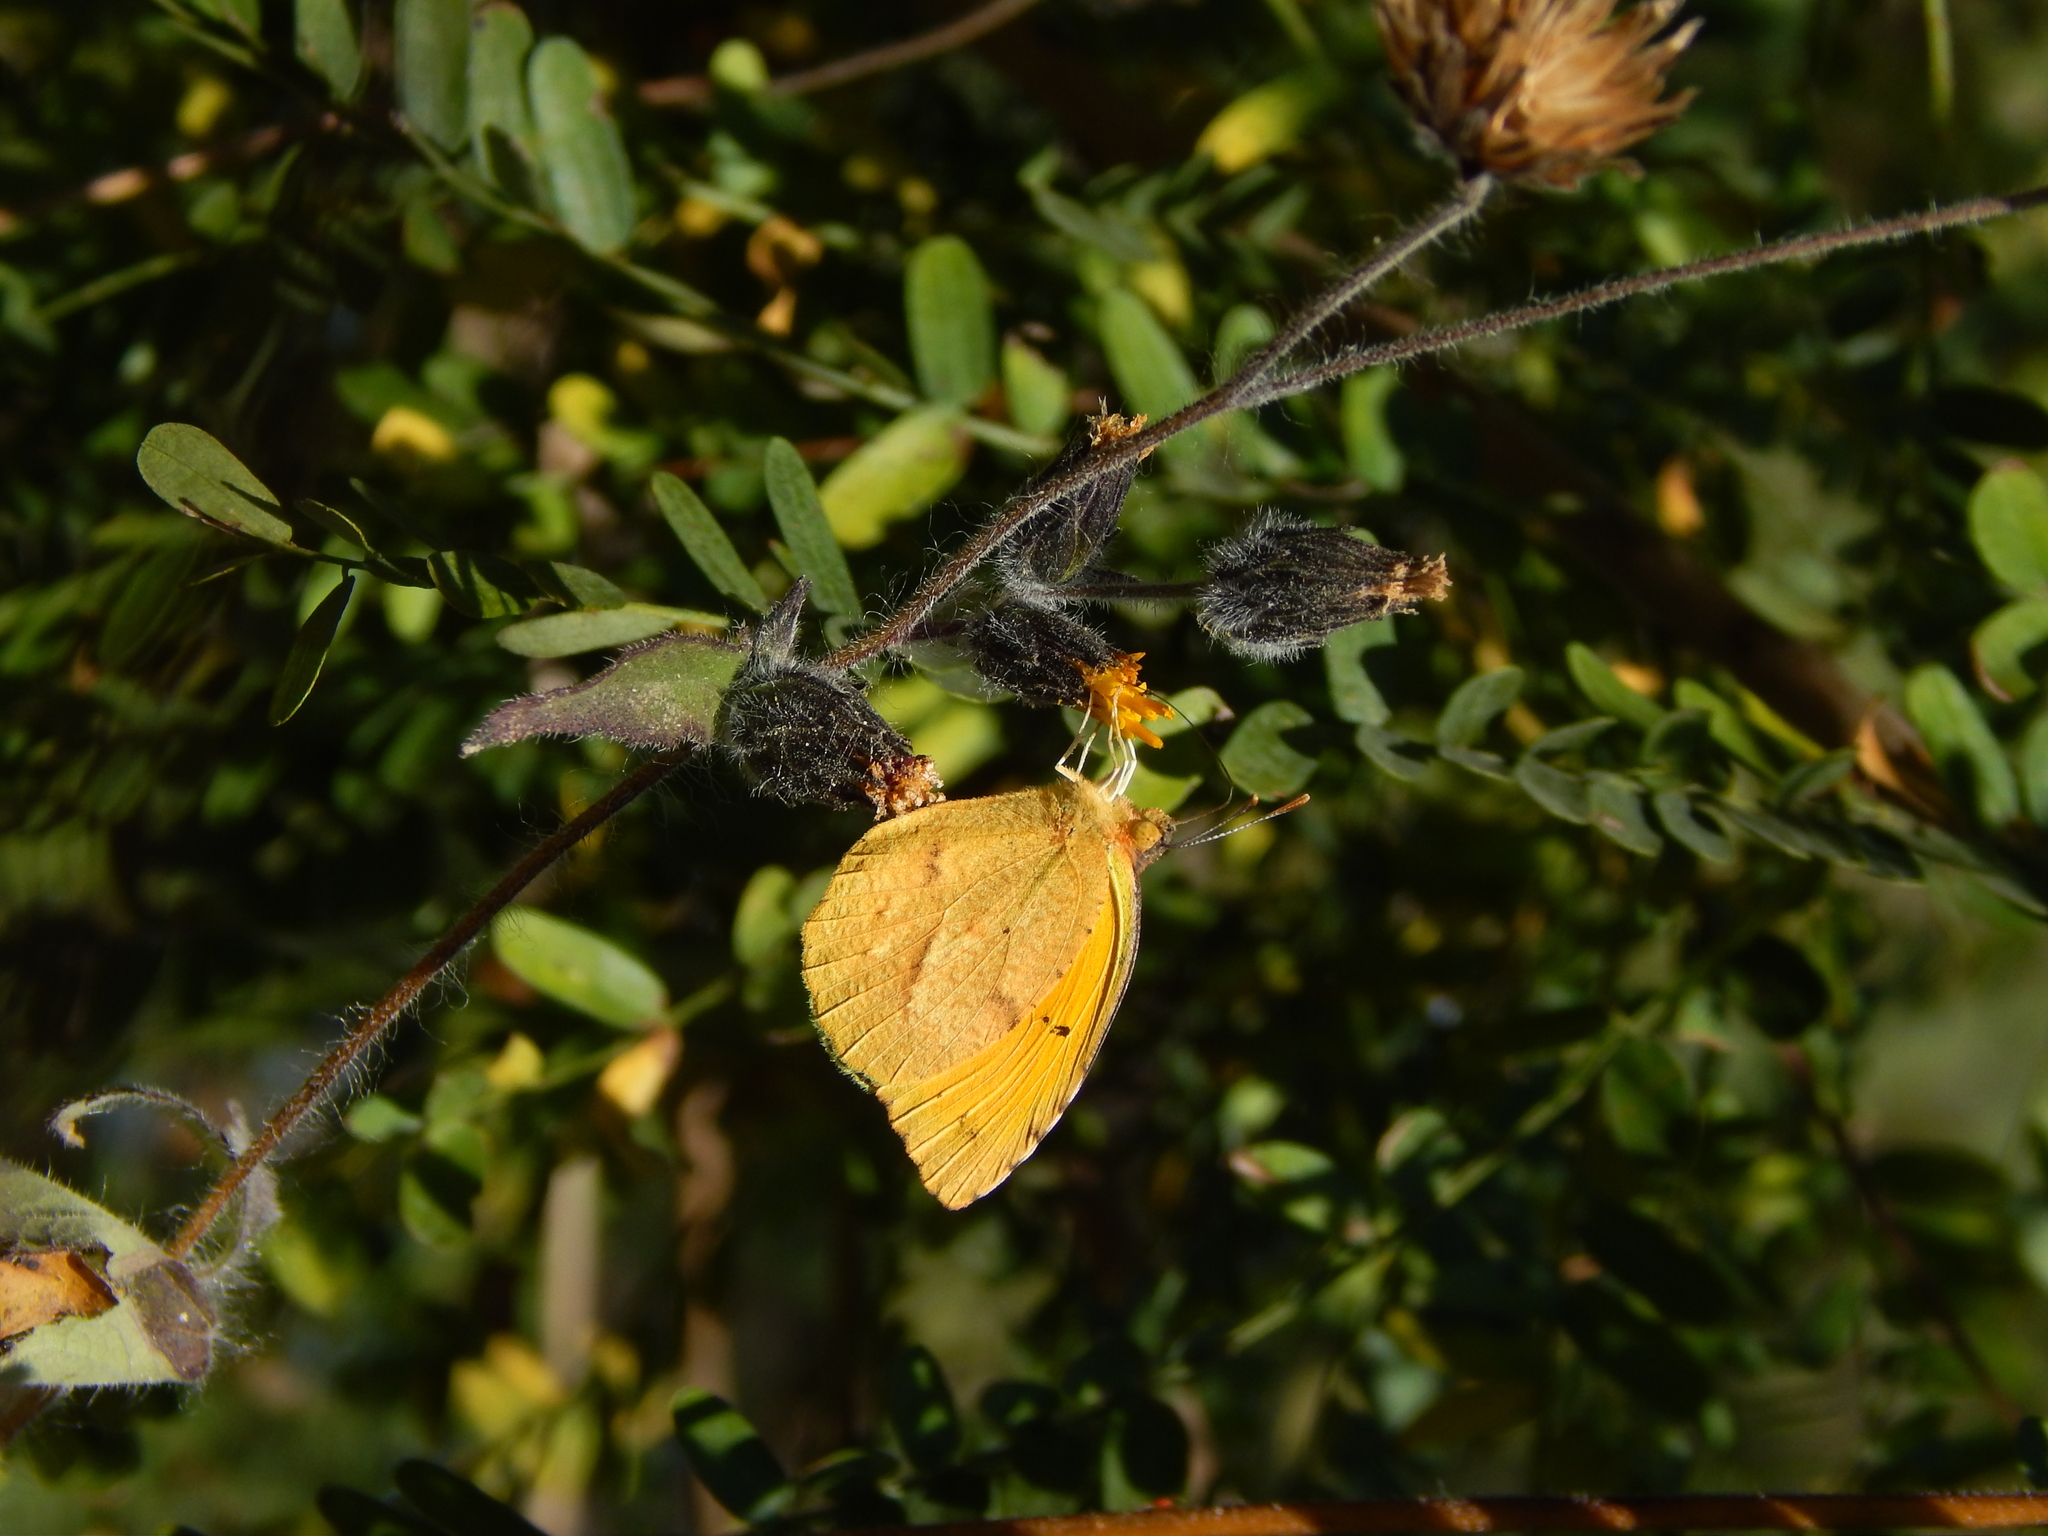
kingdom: Animalia
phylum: Arthropoda
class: Insecta
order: Lepidoptera
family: Pieridae
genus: Abaeis
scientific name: Abaeis nicippe
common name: Sleepy orange
